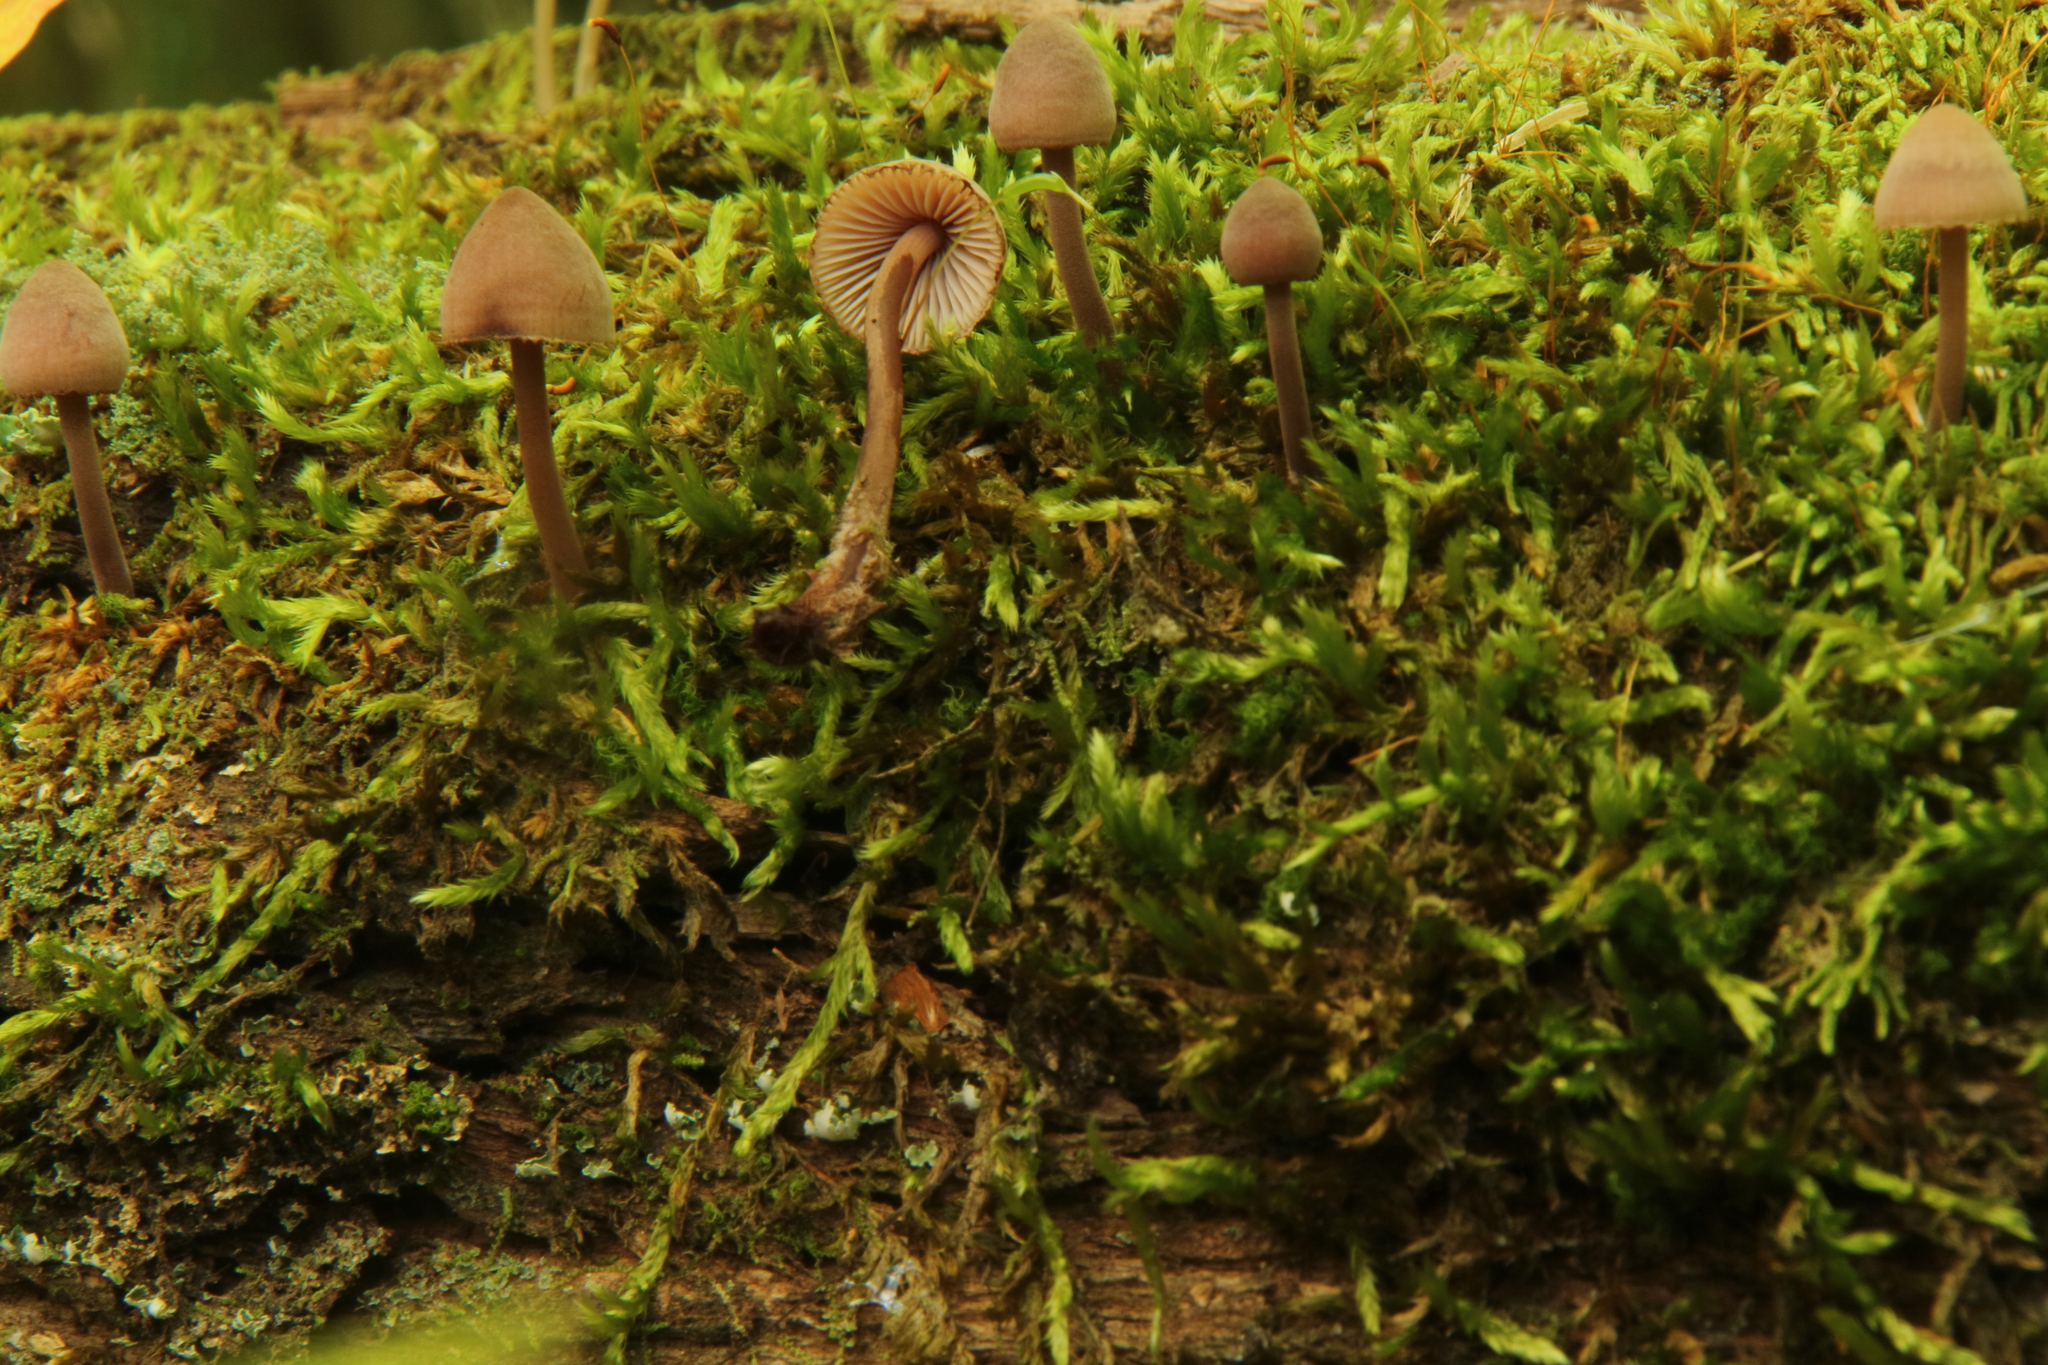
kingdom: Fungi
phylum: Basidiomycota
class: Agaricomycetes
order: Agaricales
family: Mycenaceae
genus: Mycena
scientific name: Mycena haematopus
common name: Burgundydrop bonnet
